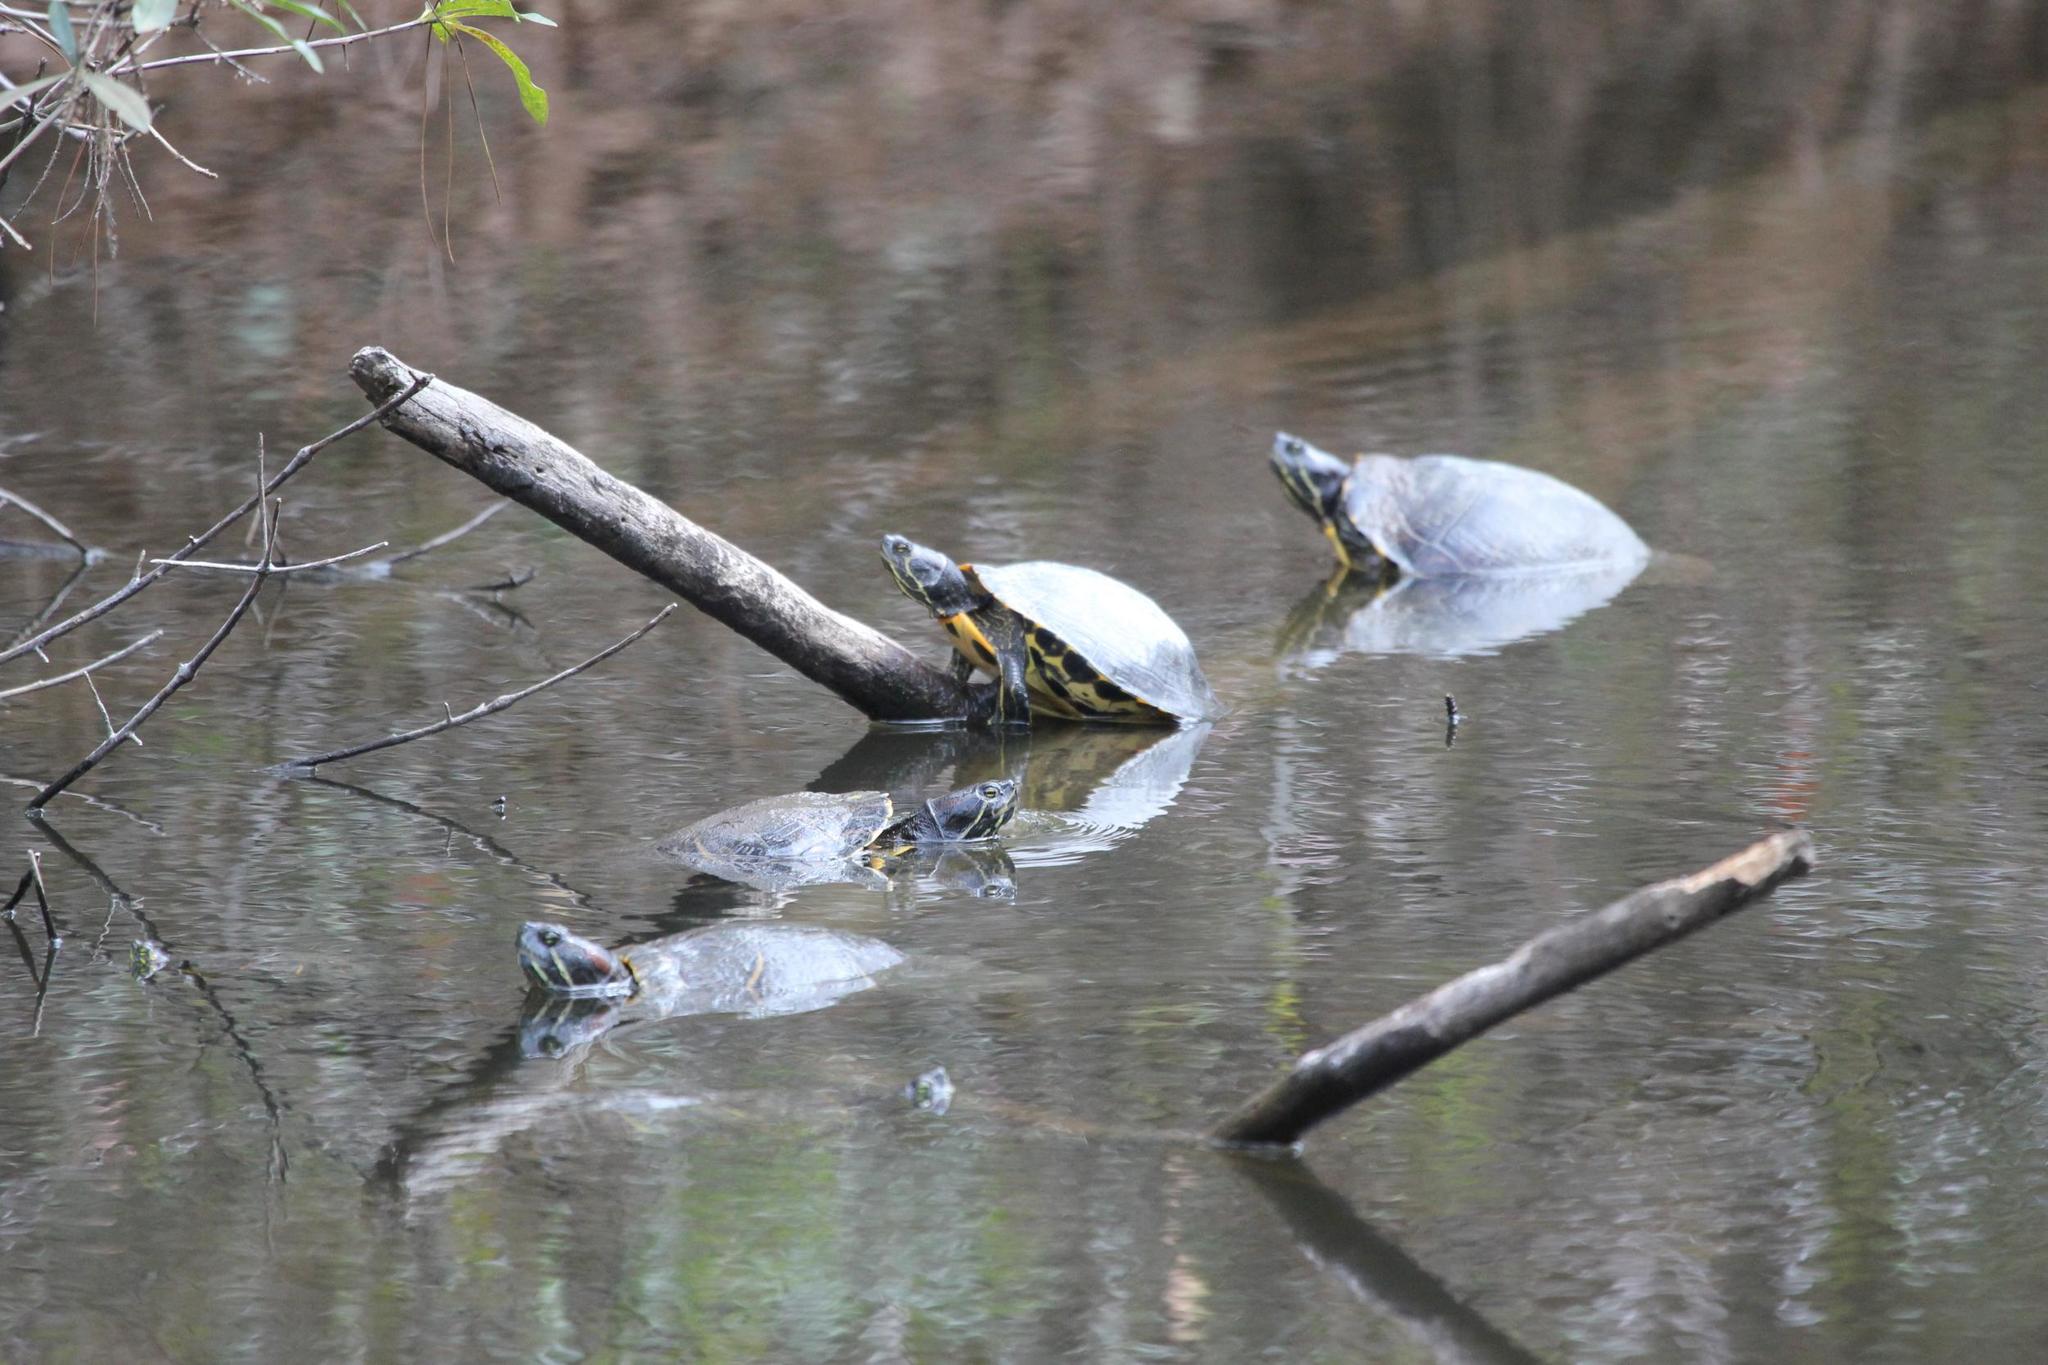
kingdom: Animalia
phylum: Chordata
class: Testudines
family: Emydidae
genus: Trachemys
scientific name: Trachemys scripta
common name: Slider
